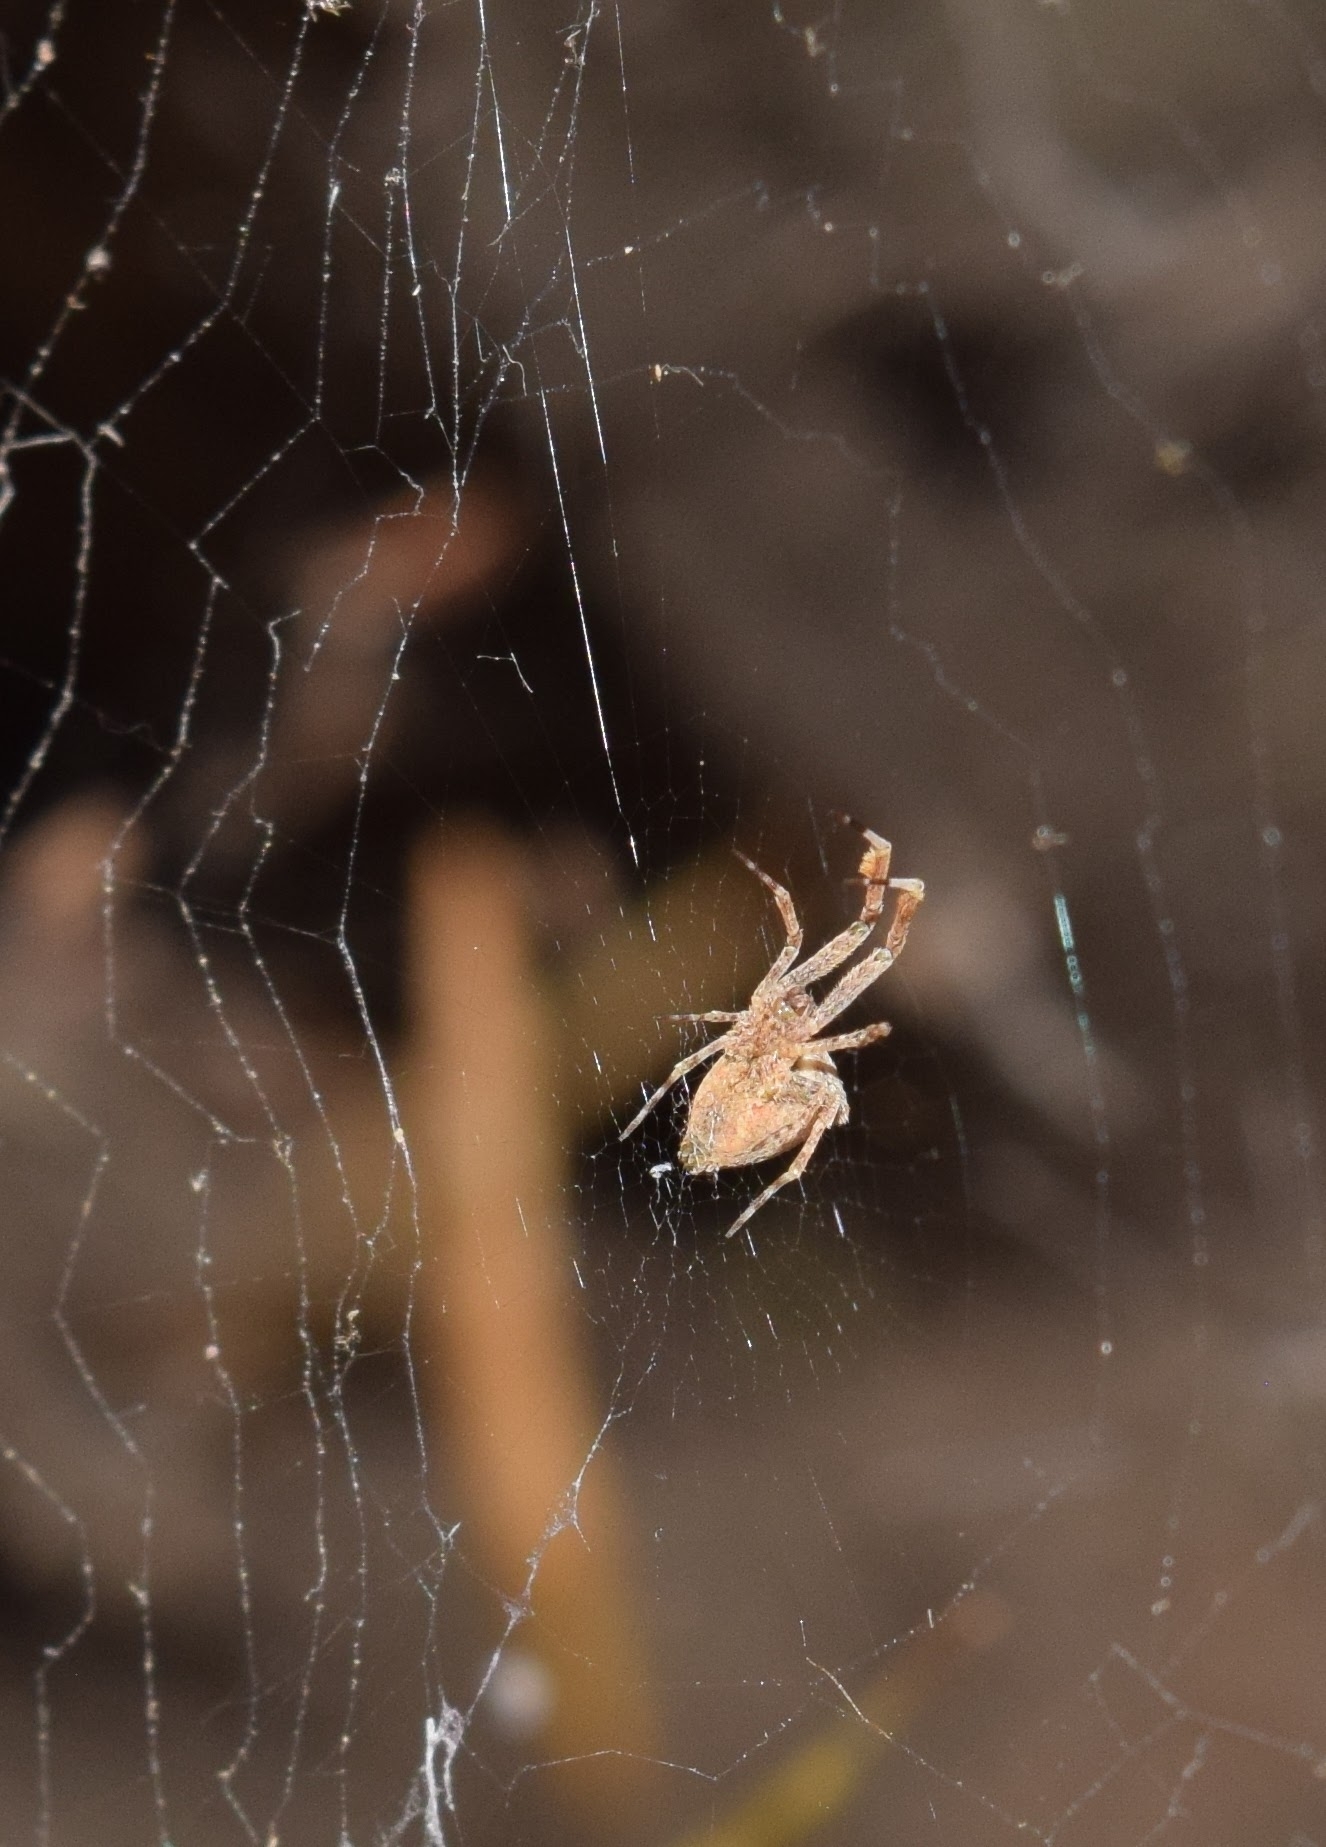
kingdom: Animalia
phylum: Arthropoda
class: Arachnida
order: Araneae
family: Uloboridae
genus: Uloborus
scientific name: Uloborus diversus
